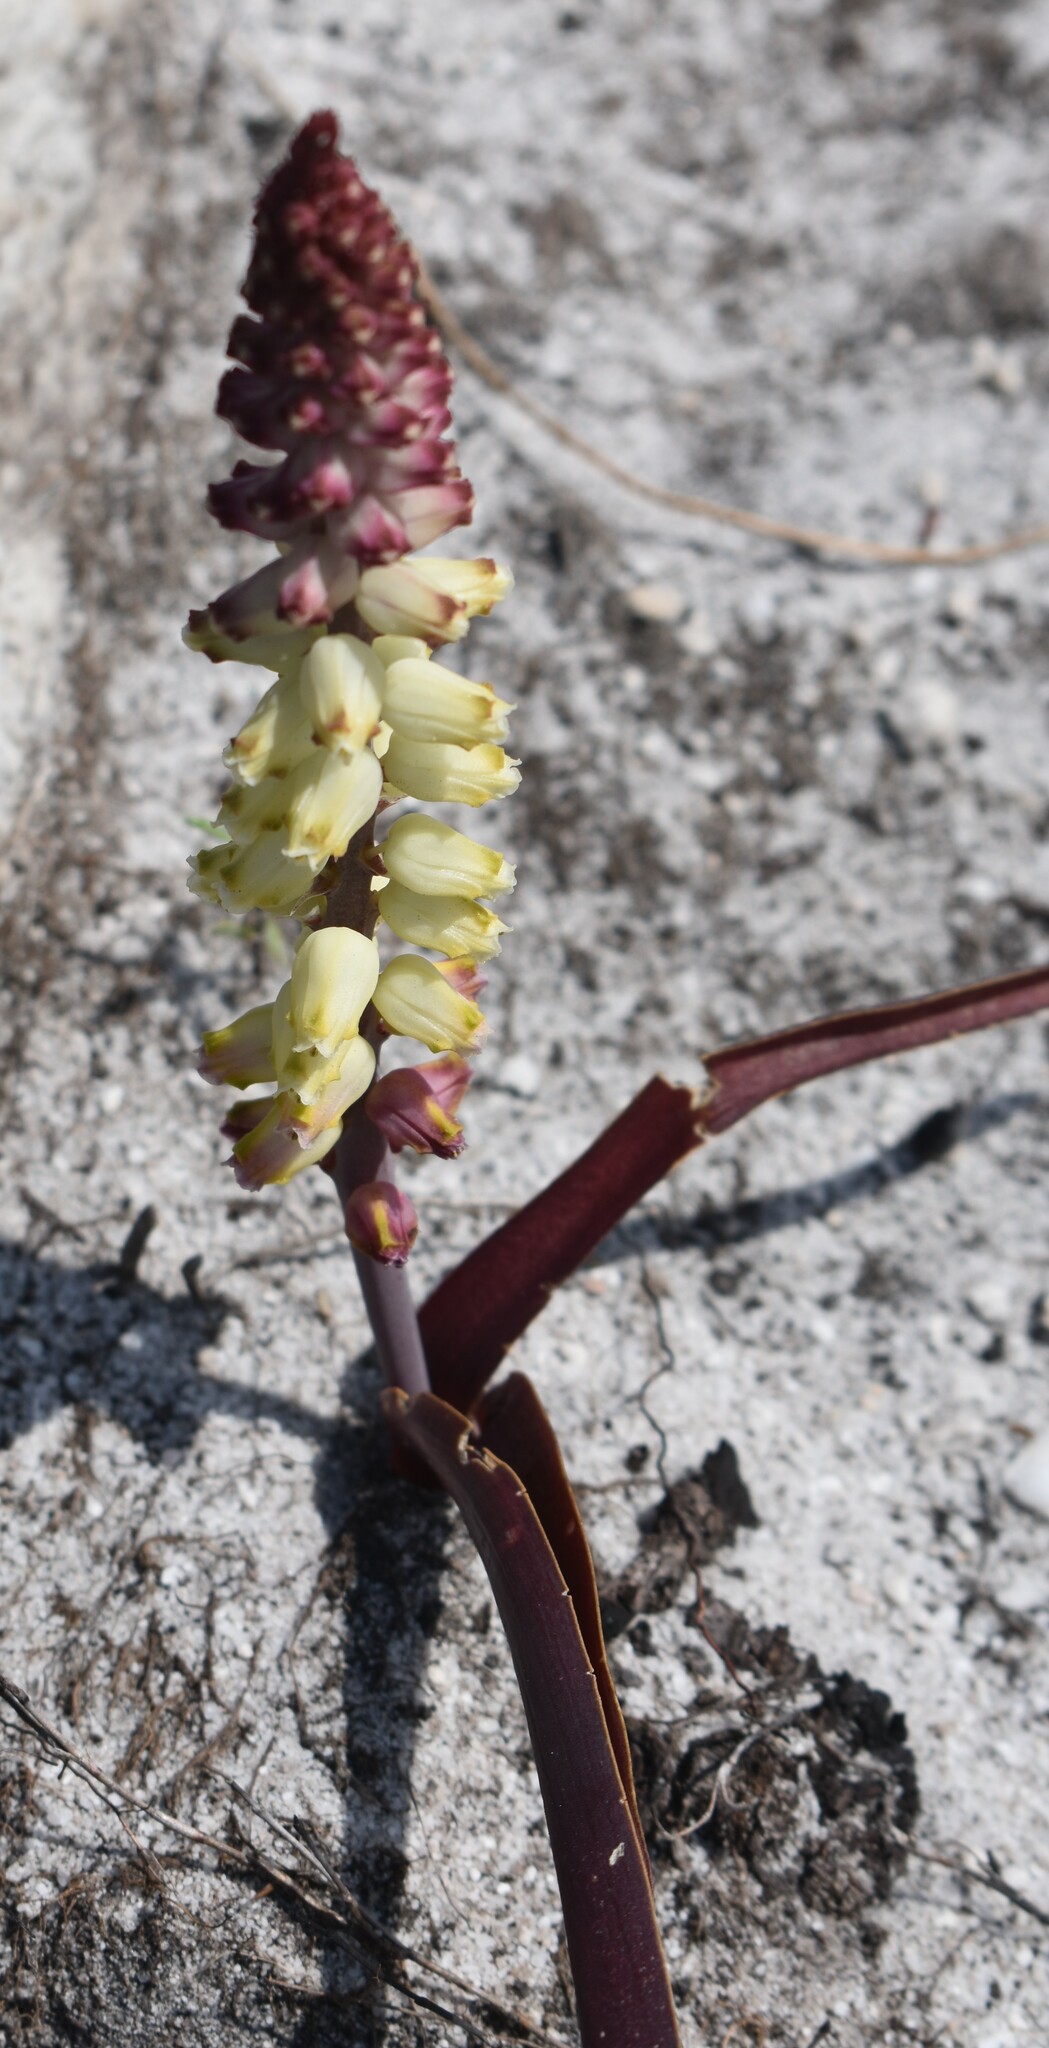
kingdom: Plantae
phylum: Tracheophyta
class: Liliopsida
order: Asparagales
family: Asparagaceae
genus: Lachenalia
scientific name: Lachenalia peersii
